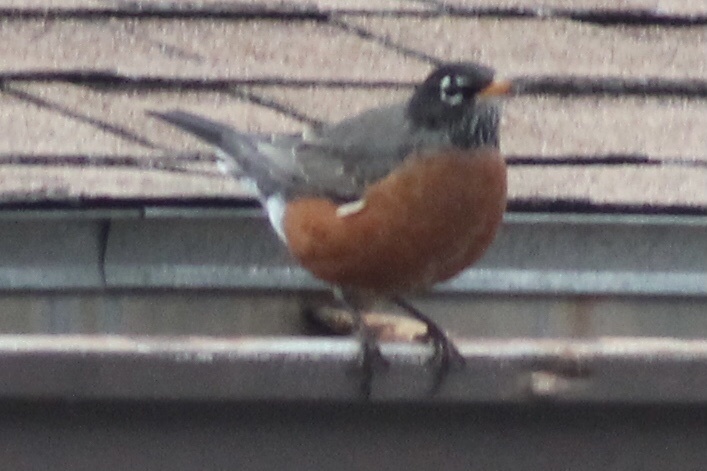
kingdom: Animalia
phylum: Chordata
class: Aves
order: Passeriformes
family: Turdidae
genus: Turdus
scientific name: Turdus migratorius
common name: American robin
